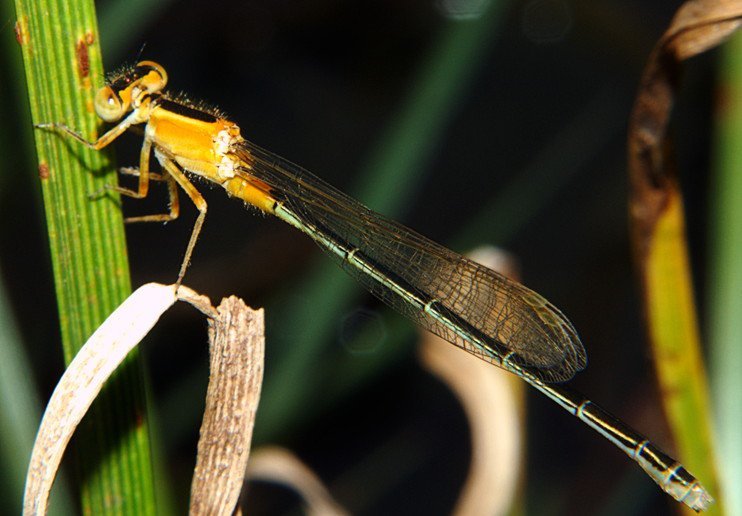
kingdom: Animalia
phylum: Arthropoda
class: Insecta
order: Odonata
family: Coenagrionidae
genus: Ischnura
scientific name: Ischnura senegalensis
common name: Tropical bluetail
